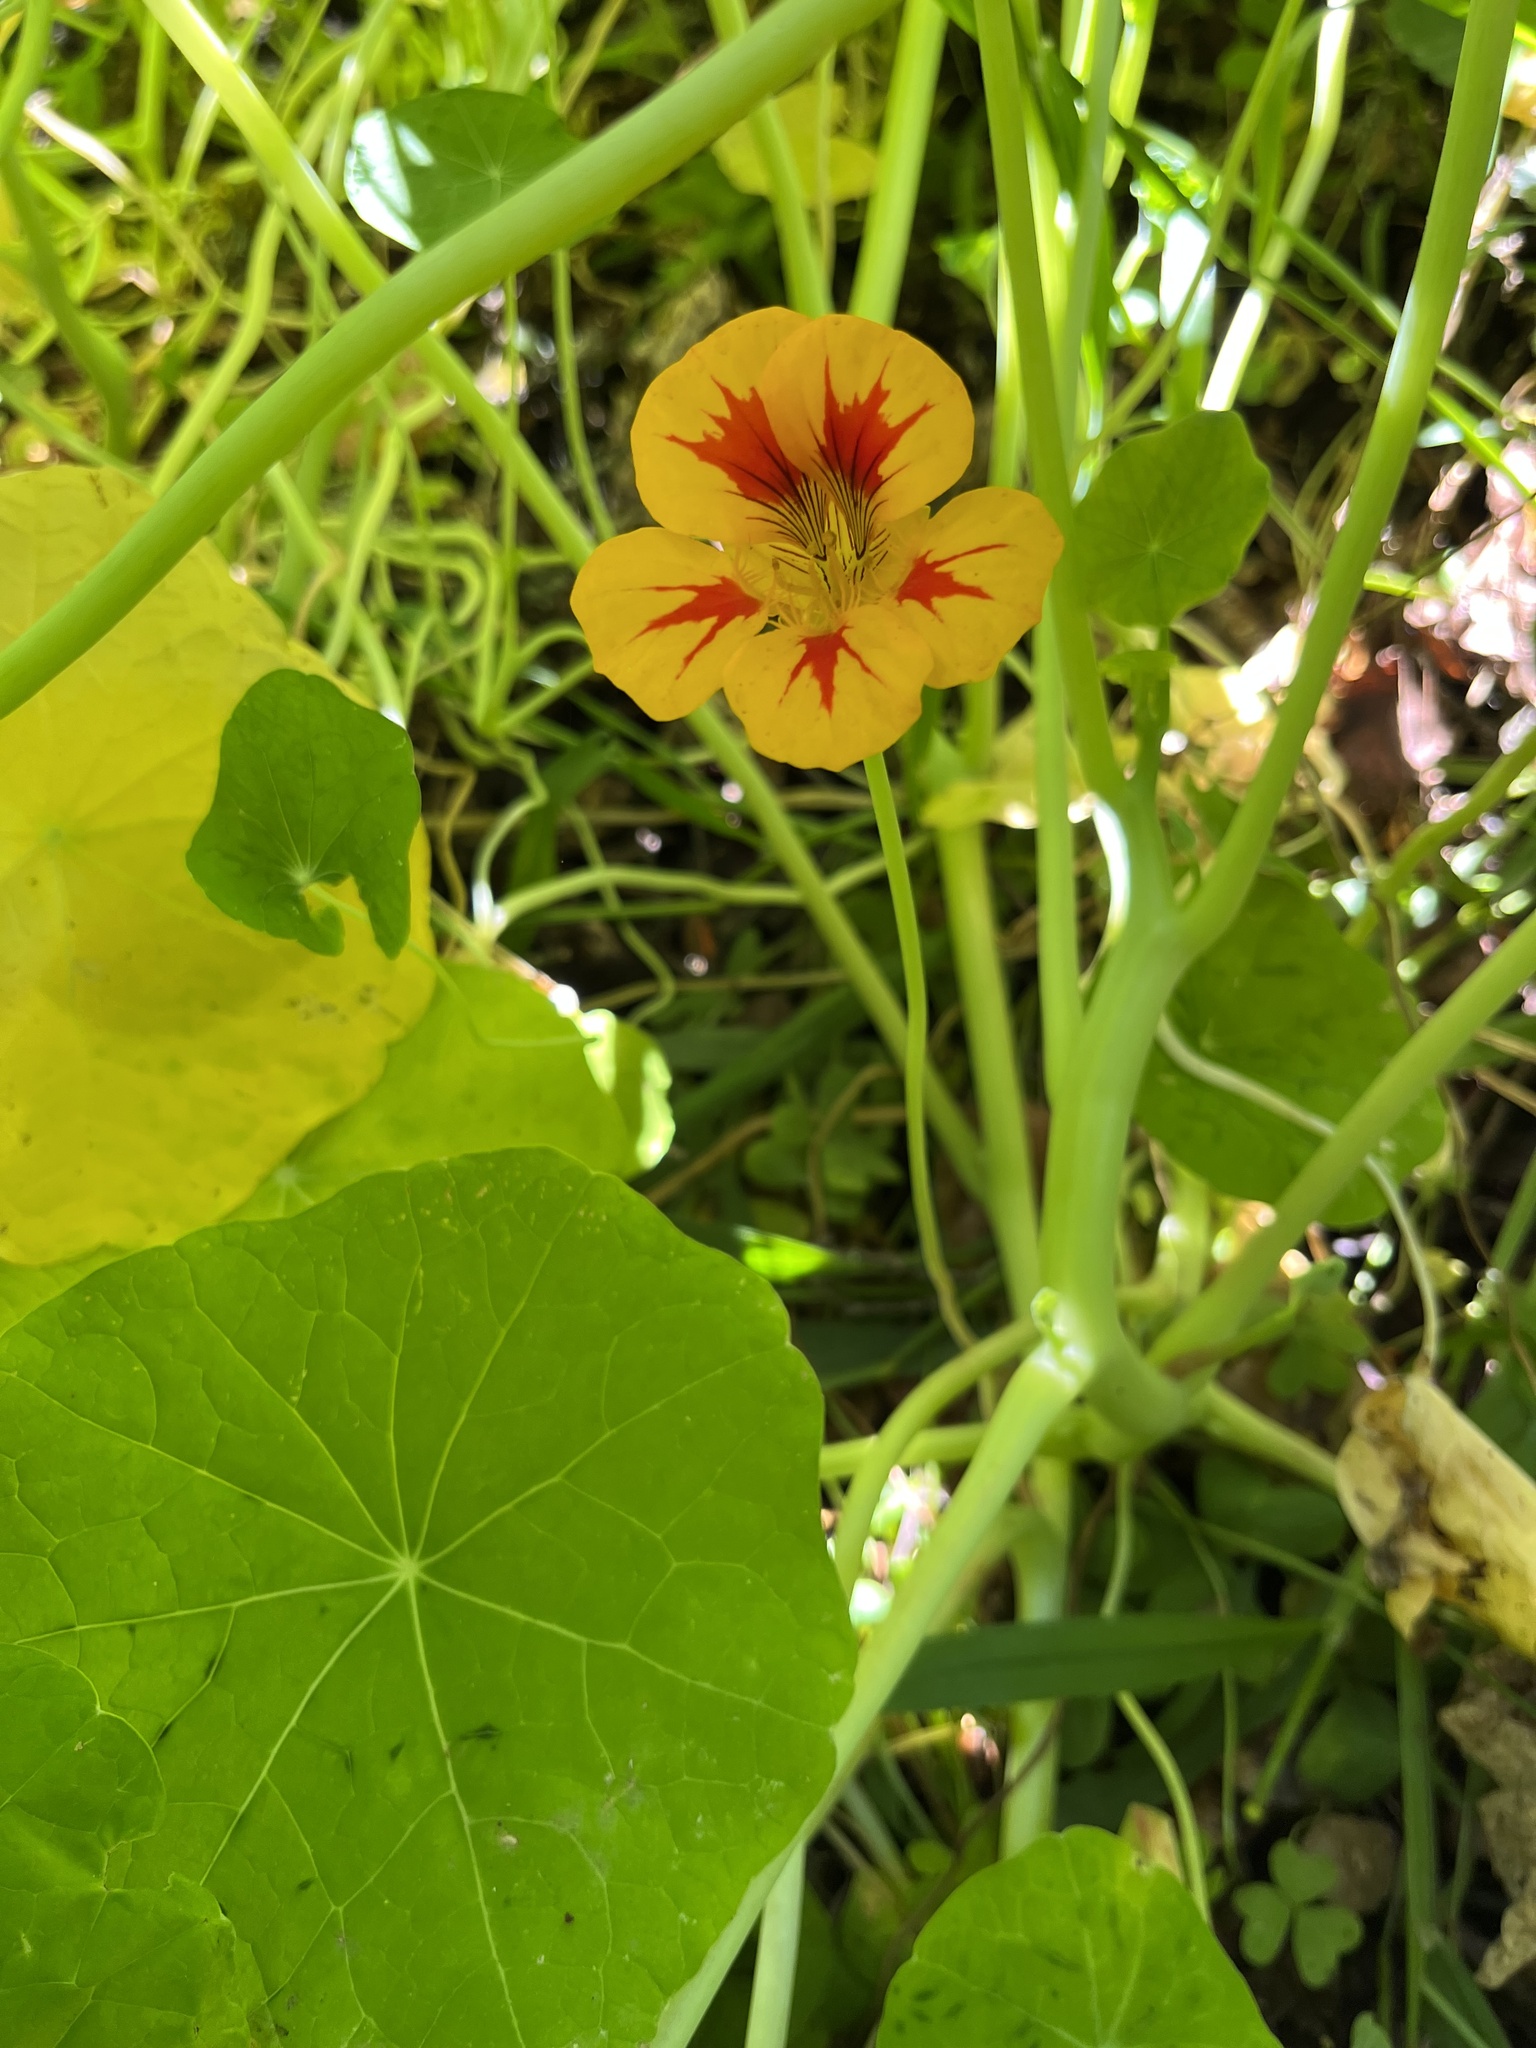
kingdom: Plantae
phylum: Tracheophyta
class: Magnoliopsida
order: Brassicales
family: Tropaeolaceae
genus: Tropaeolum
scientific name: Tropaeolum majus
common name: Nasturtium
